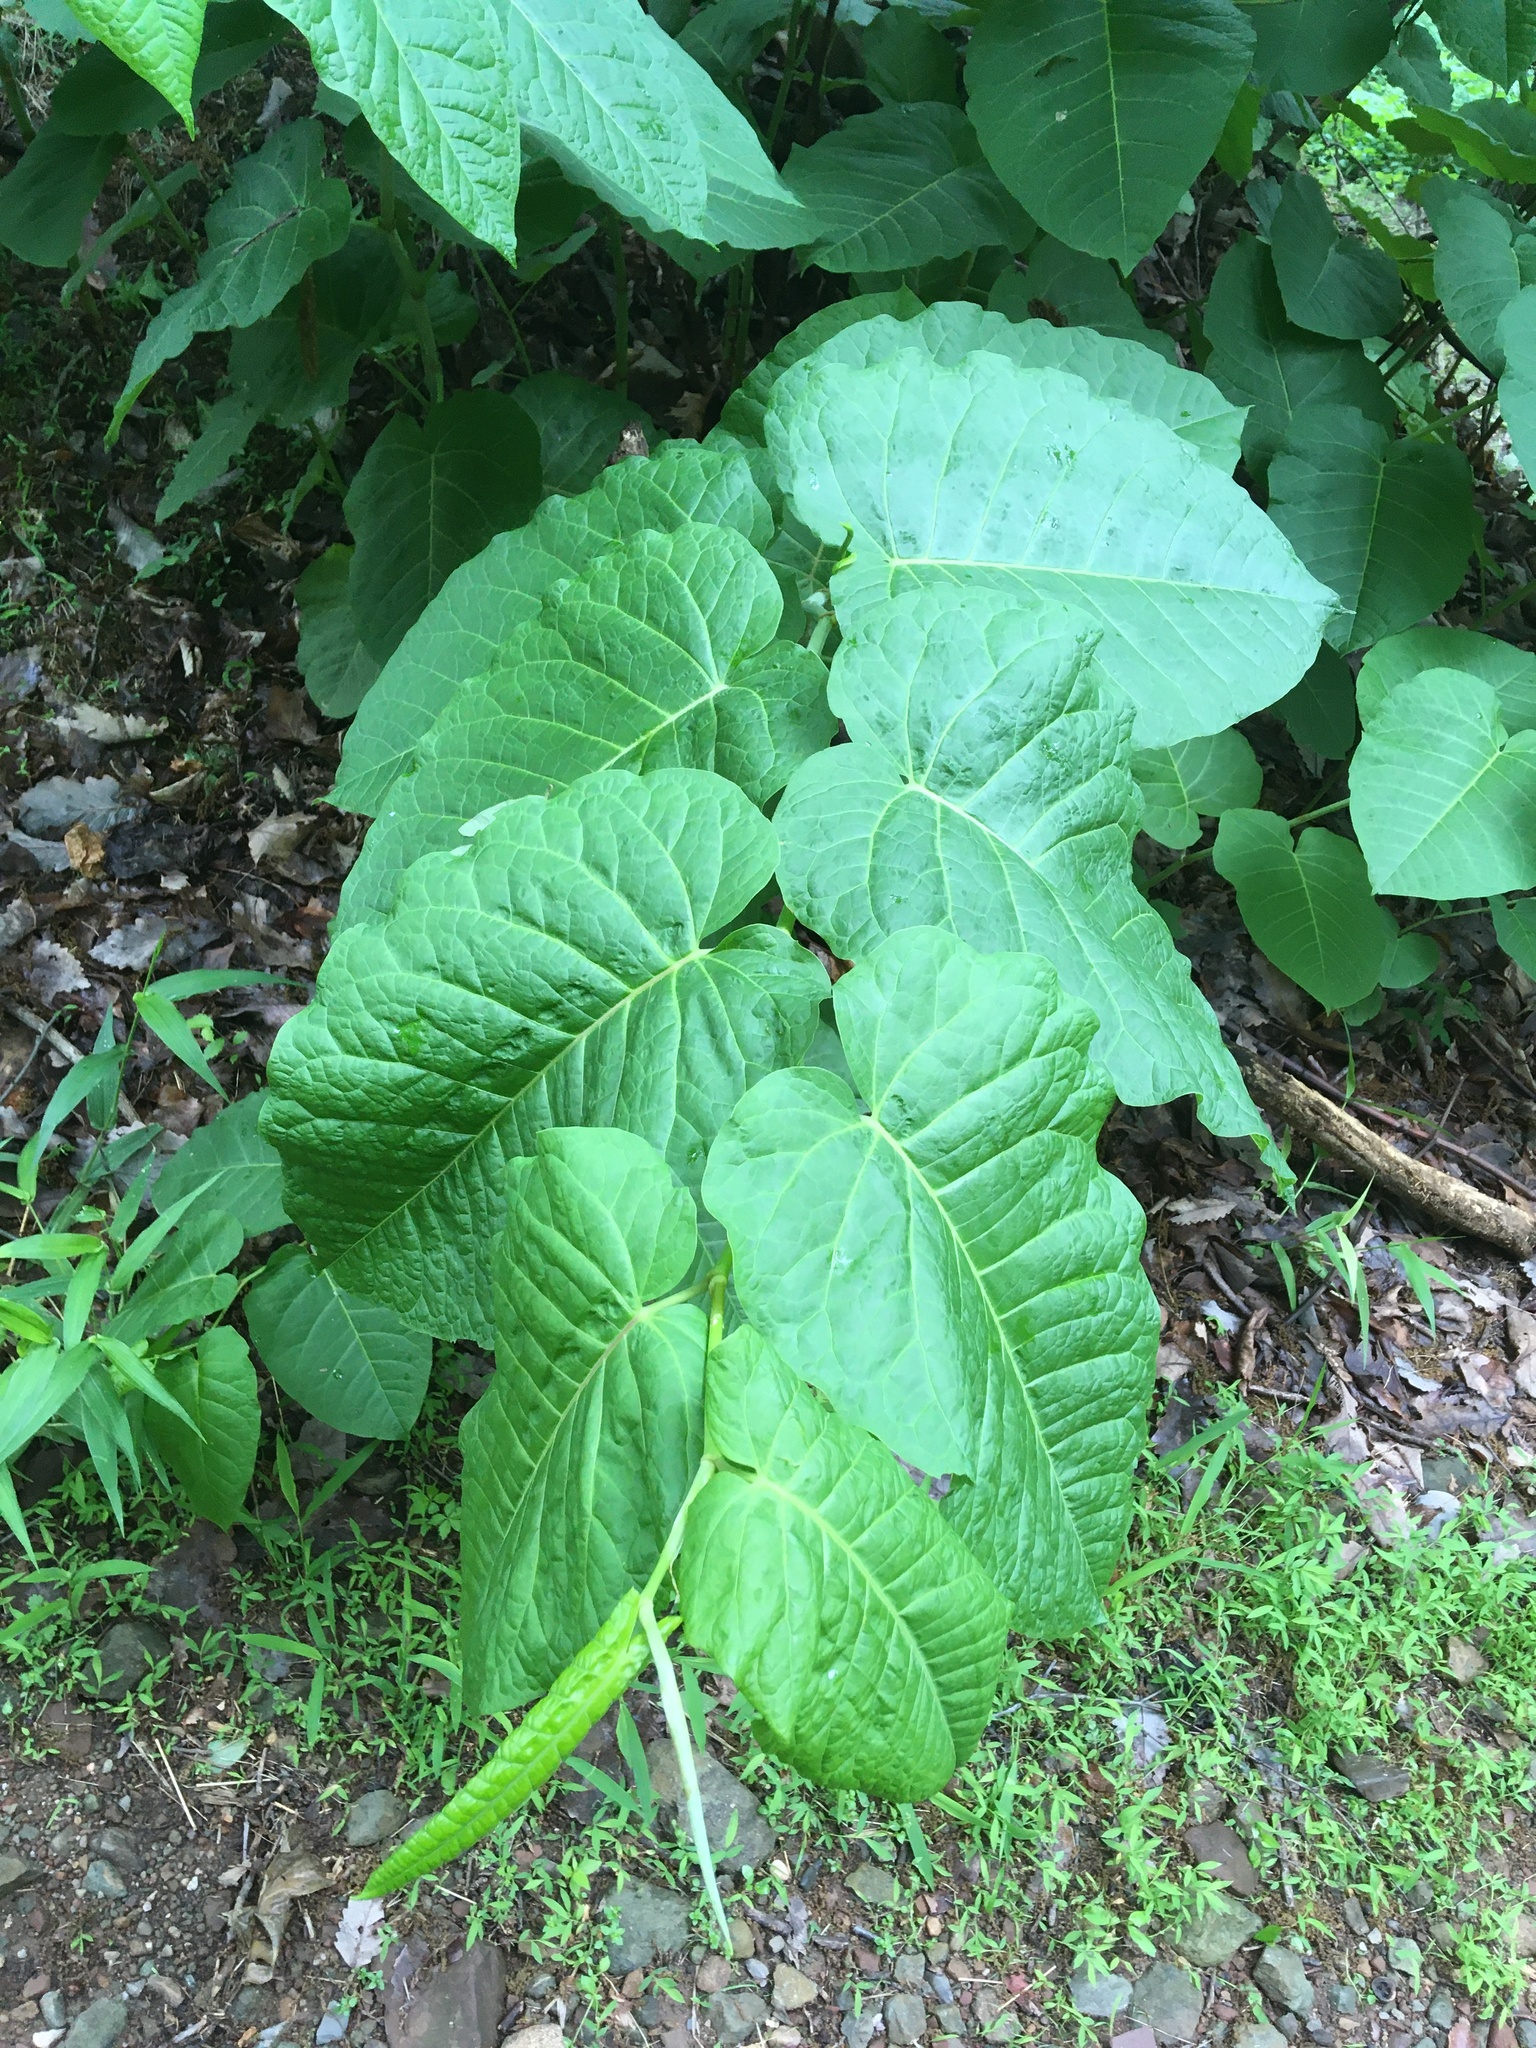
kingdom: Plantae
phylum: Tracheophyta
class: Magnoliopsida
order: Caryophyllales
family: Polygonaceae
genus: Reynoutria
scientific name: Reynoutria sachalinensis
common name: Giant knotweed
